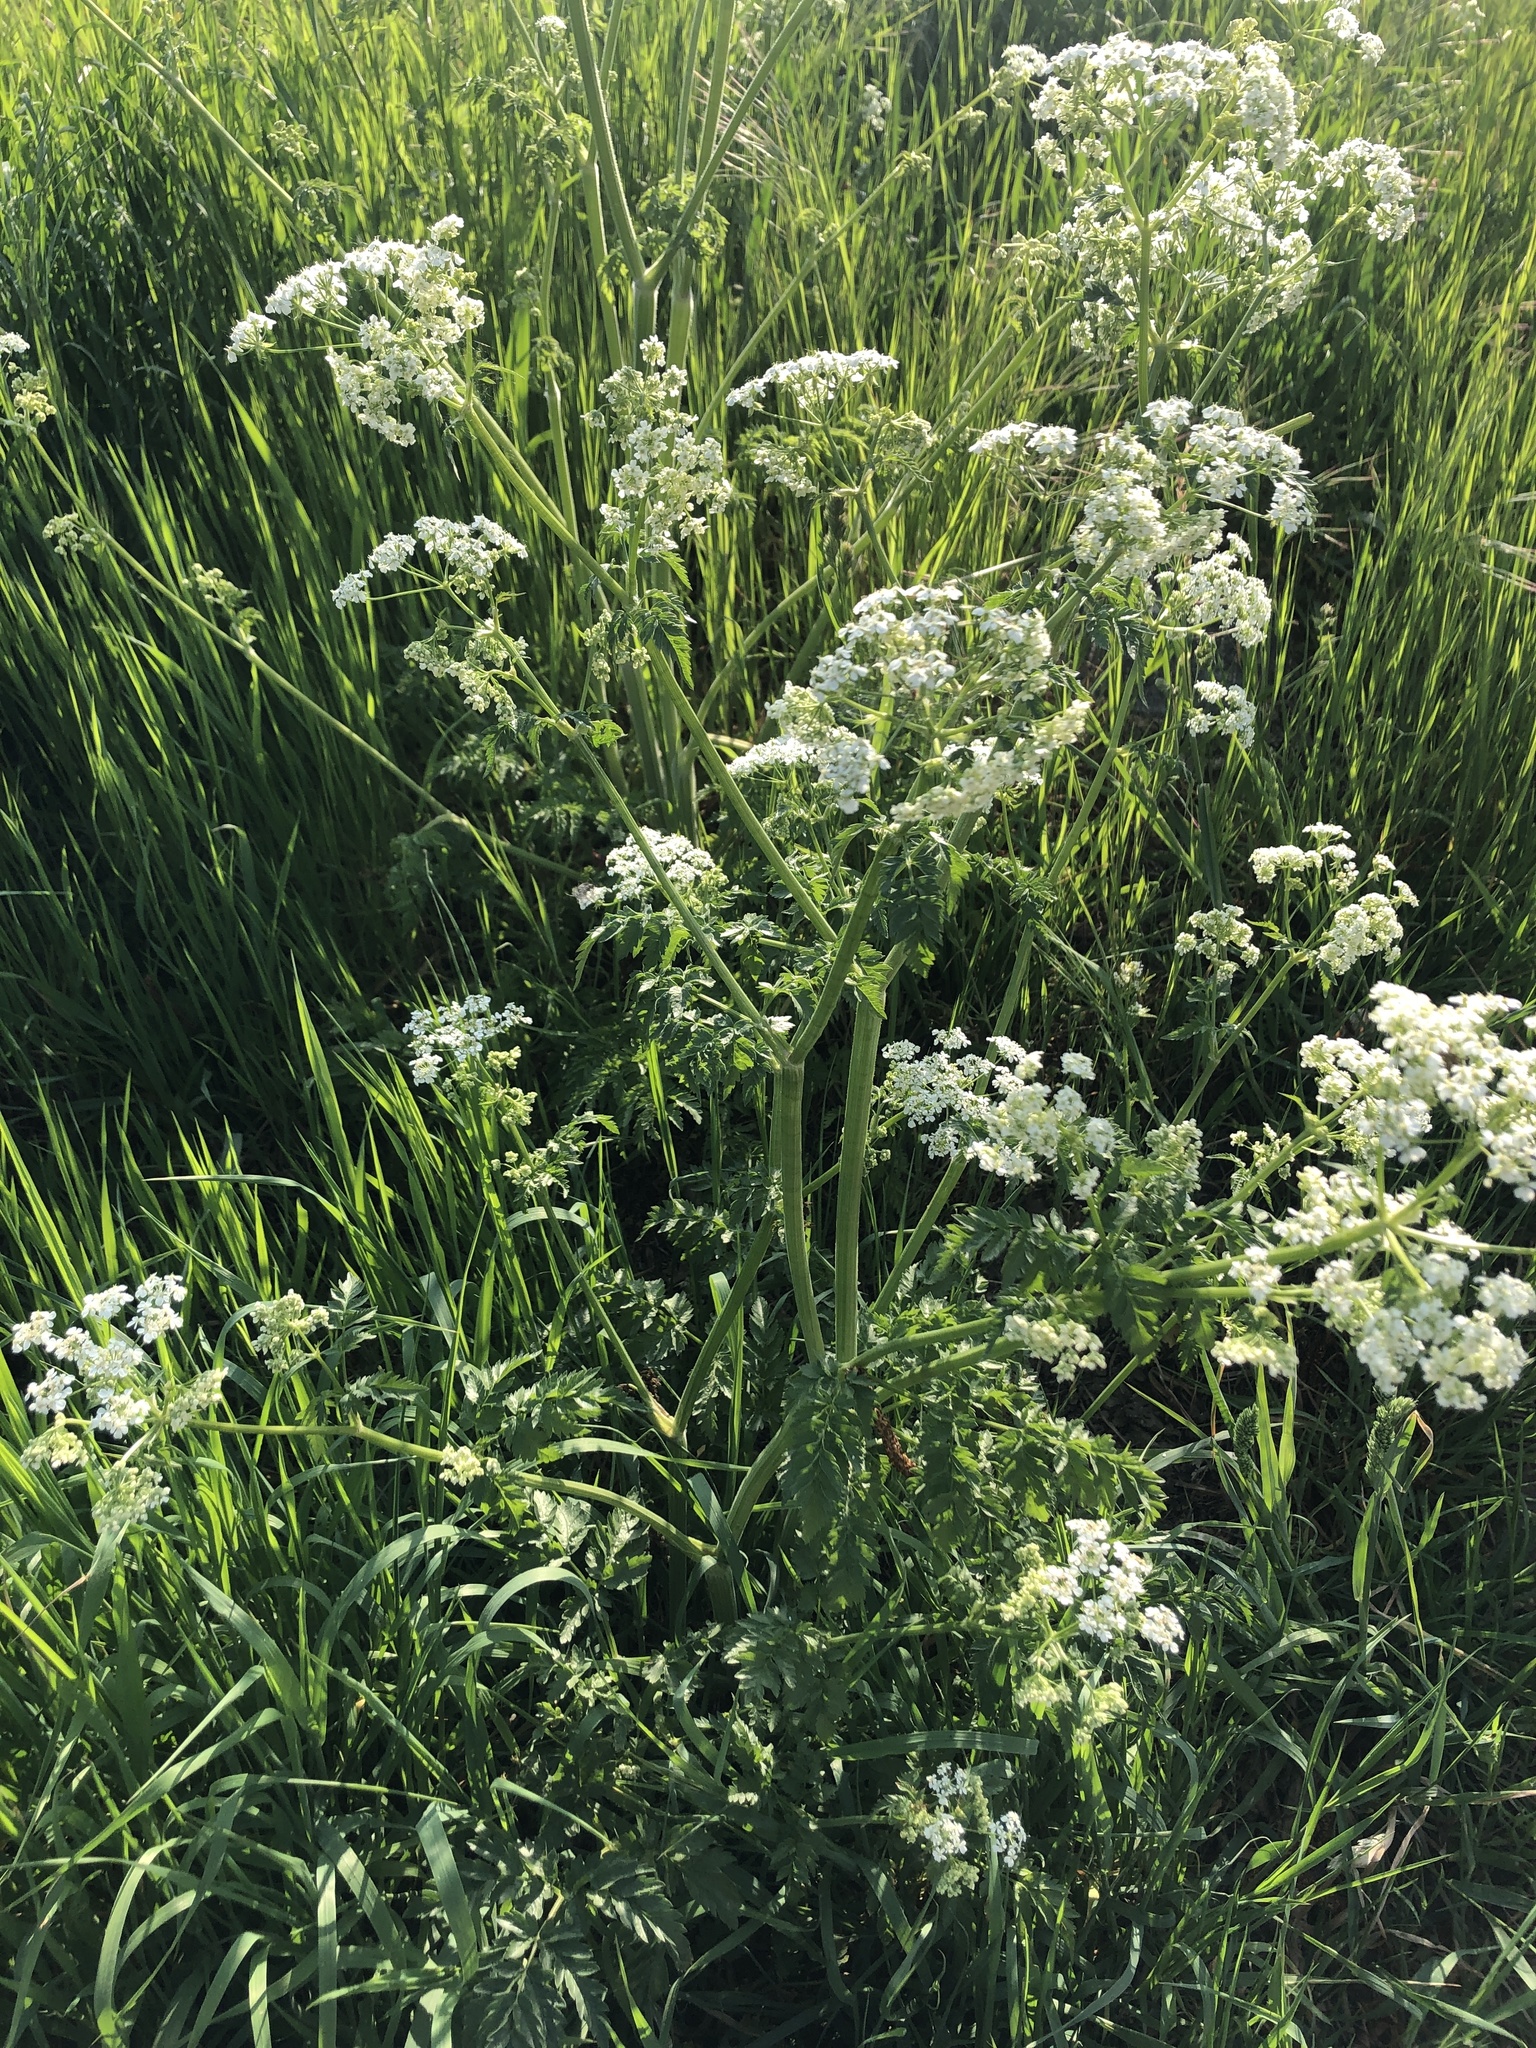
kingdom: Plantae
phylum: Tracheophyta
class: Magnoliopsida
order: Apiales
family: Apiaceae
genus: Anthriscus
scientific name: Anthriscus sylvestris
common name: Cow parsley
